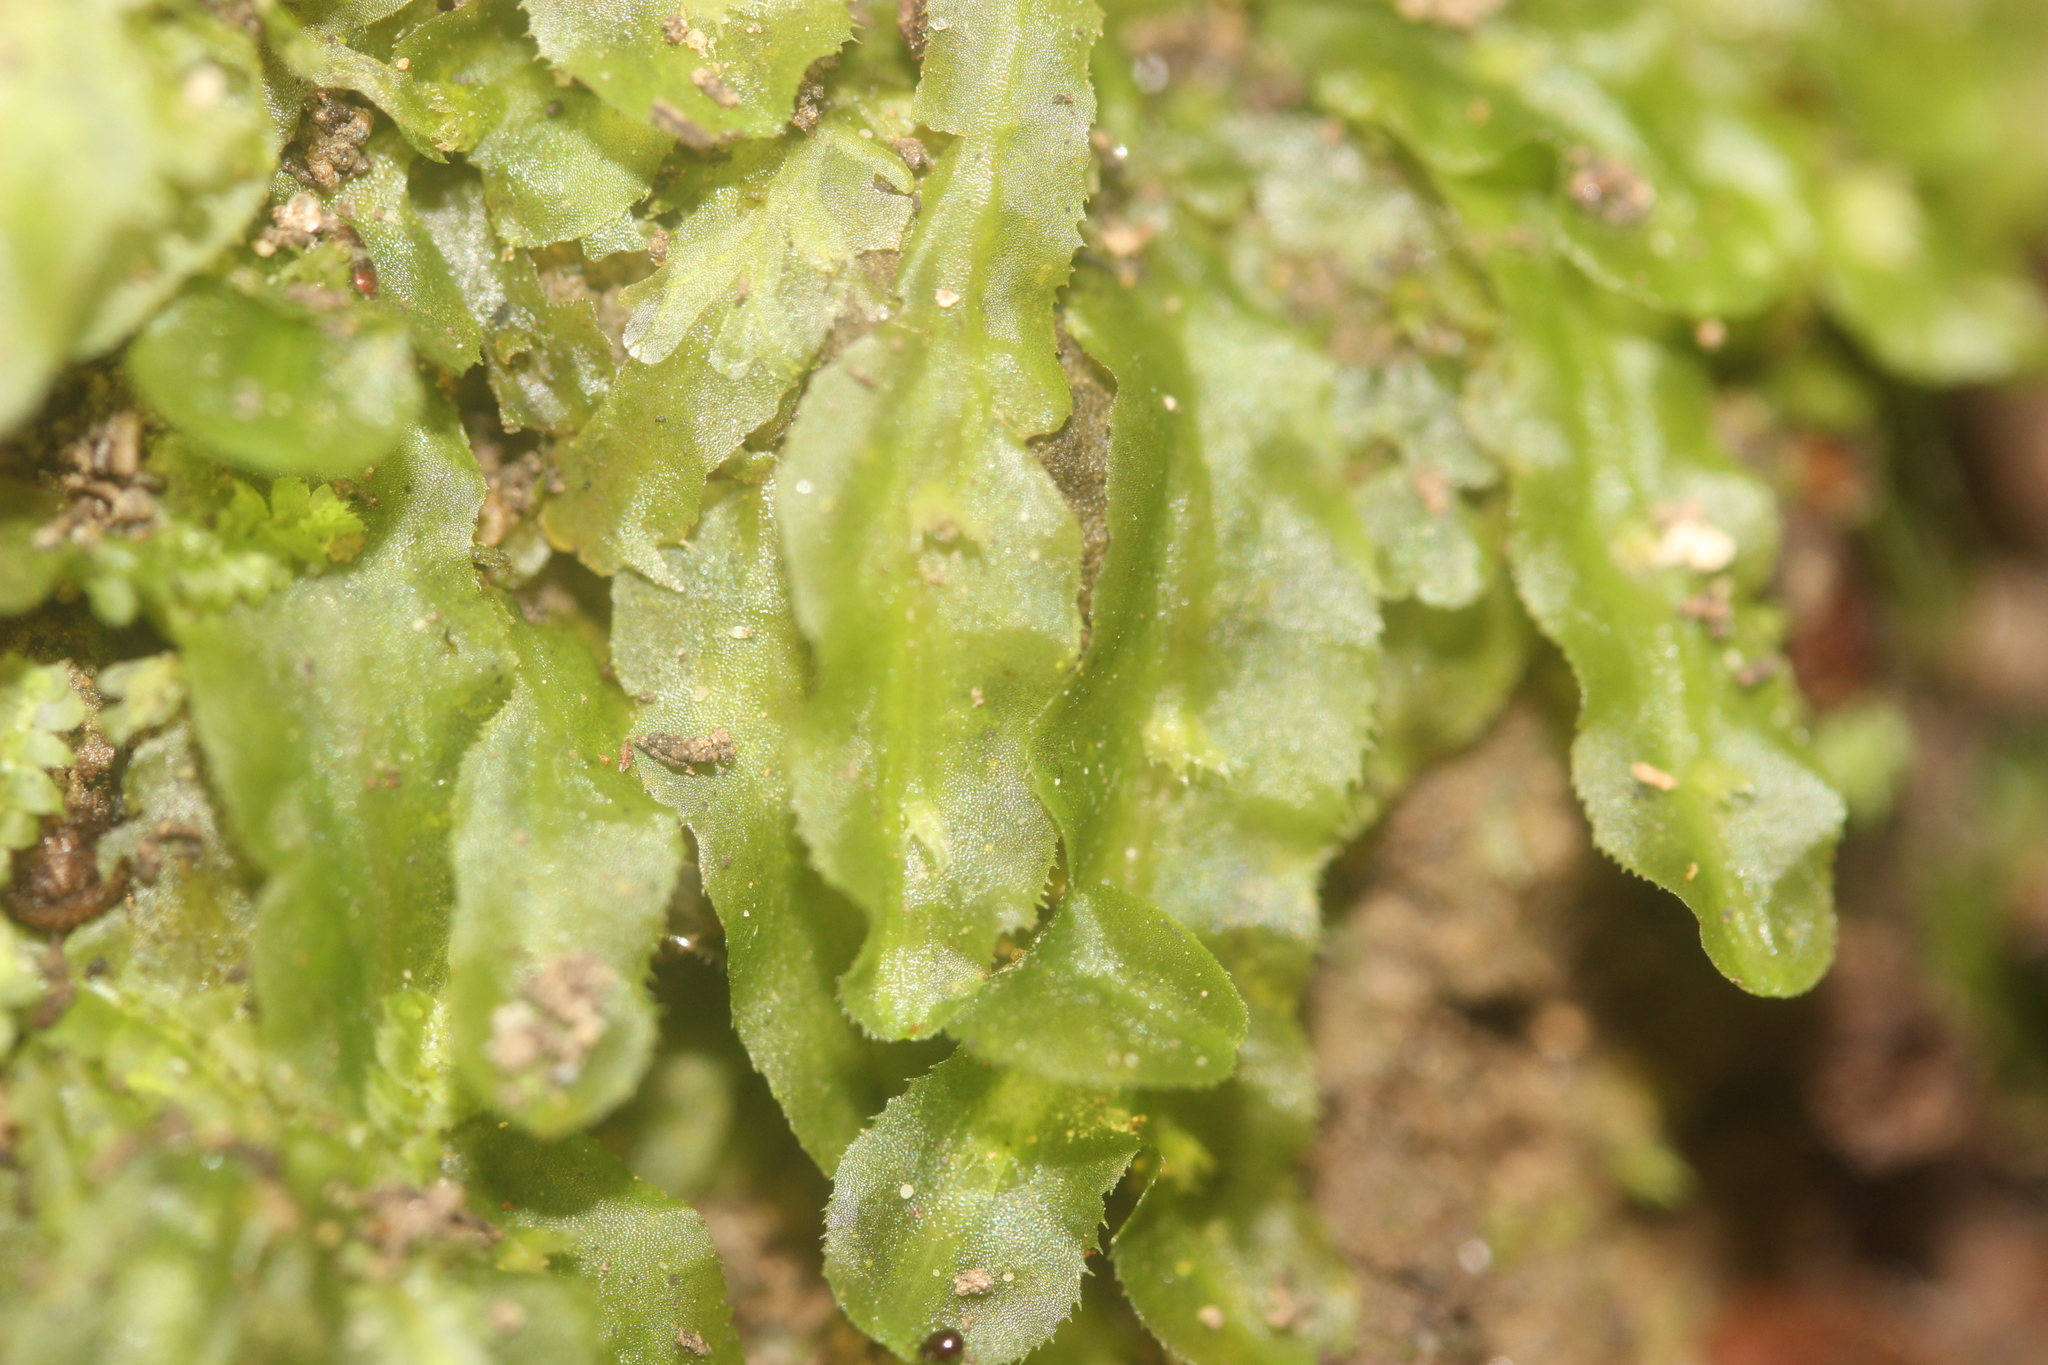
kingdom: Plantae
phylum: Marchantiophyta
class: Jungermanniopsida
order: Pallaviciniales
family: Pallaviciniaceae
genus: Prionothallus
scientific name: Prionothallus xiphoides
